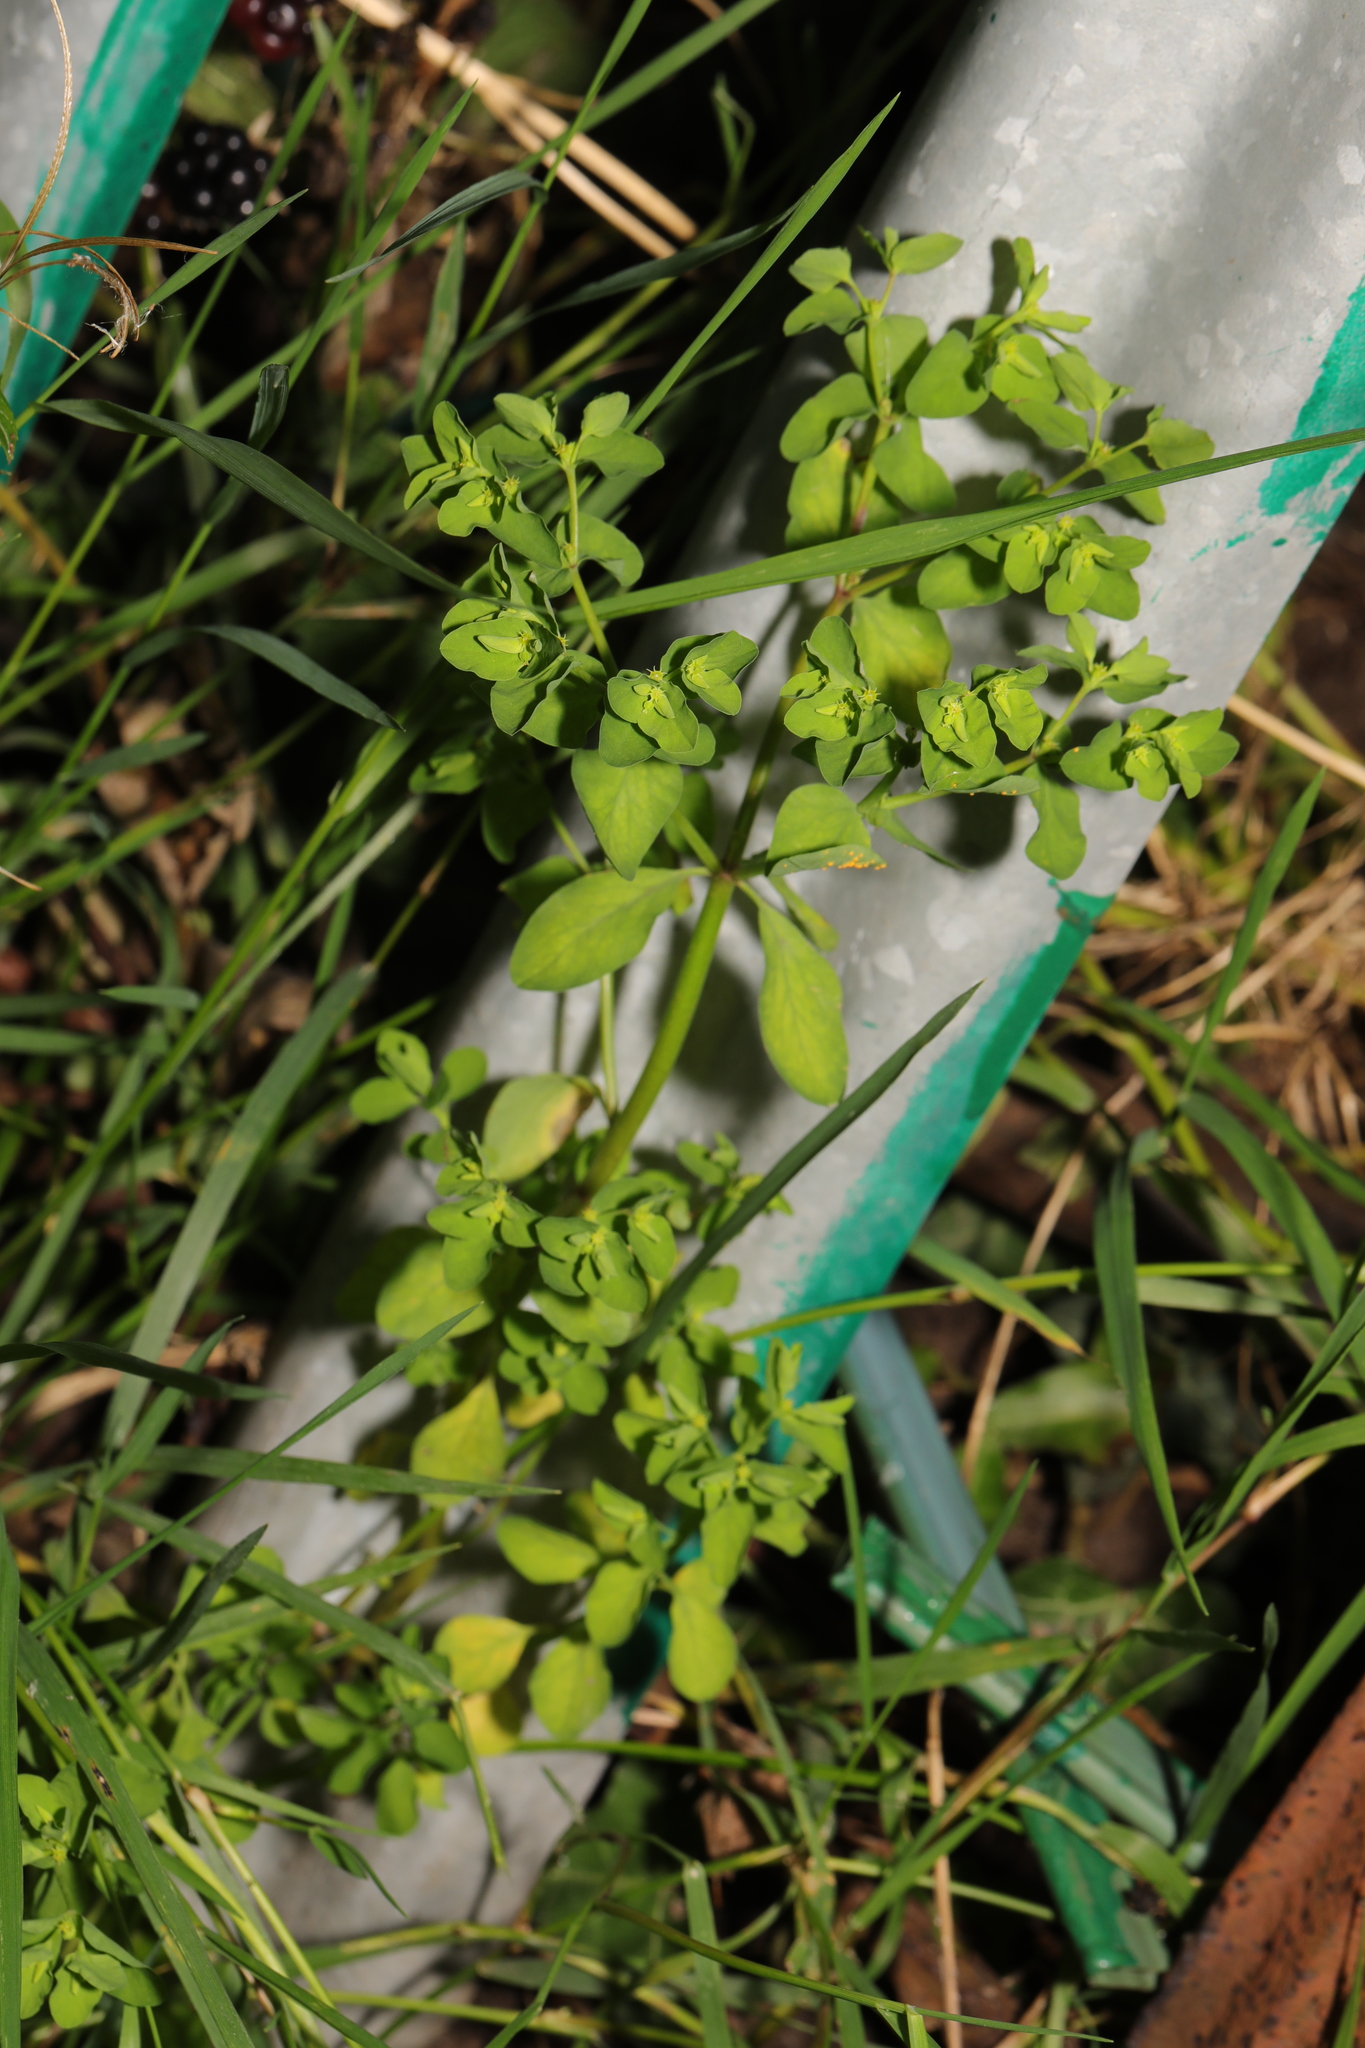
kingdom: Plantae
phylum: Tracheophyta
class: Magnoliopsida
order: Malpighiales
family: Euphorbiaceae
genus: Euphorbia
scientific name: Euphorbia peplus
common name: Petty spurge
